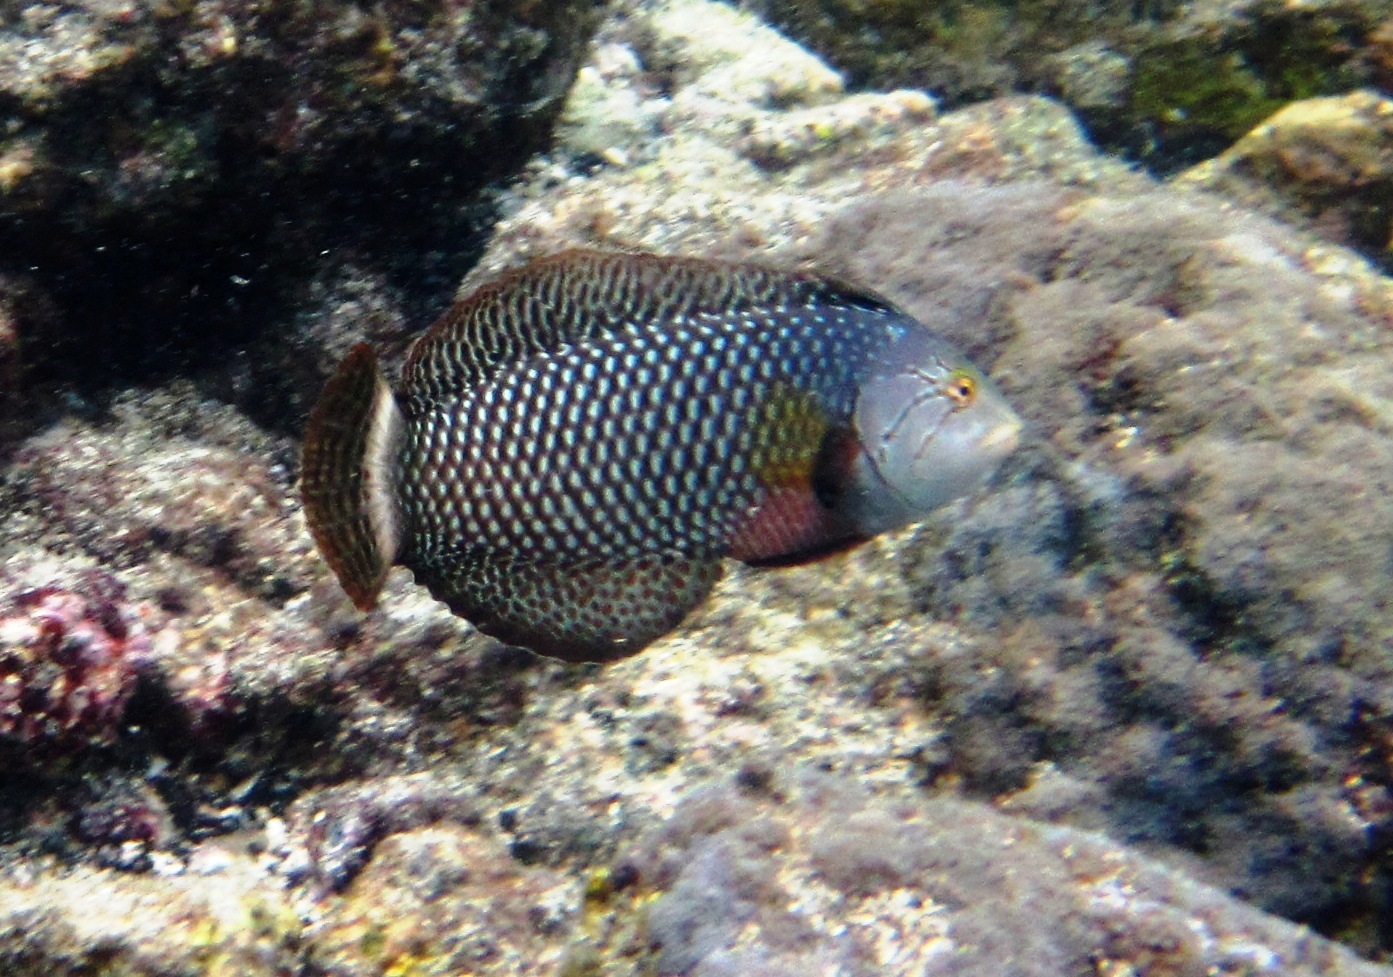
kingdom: Animalia
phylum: Chordata
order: Perciformes
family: Labridae
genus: Novaculichthys
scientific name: Novaculichthys taeniourus
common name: Rockmover wrasse
